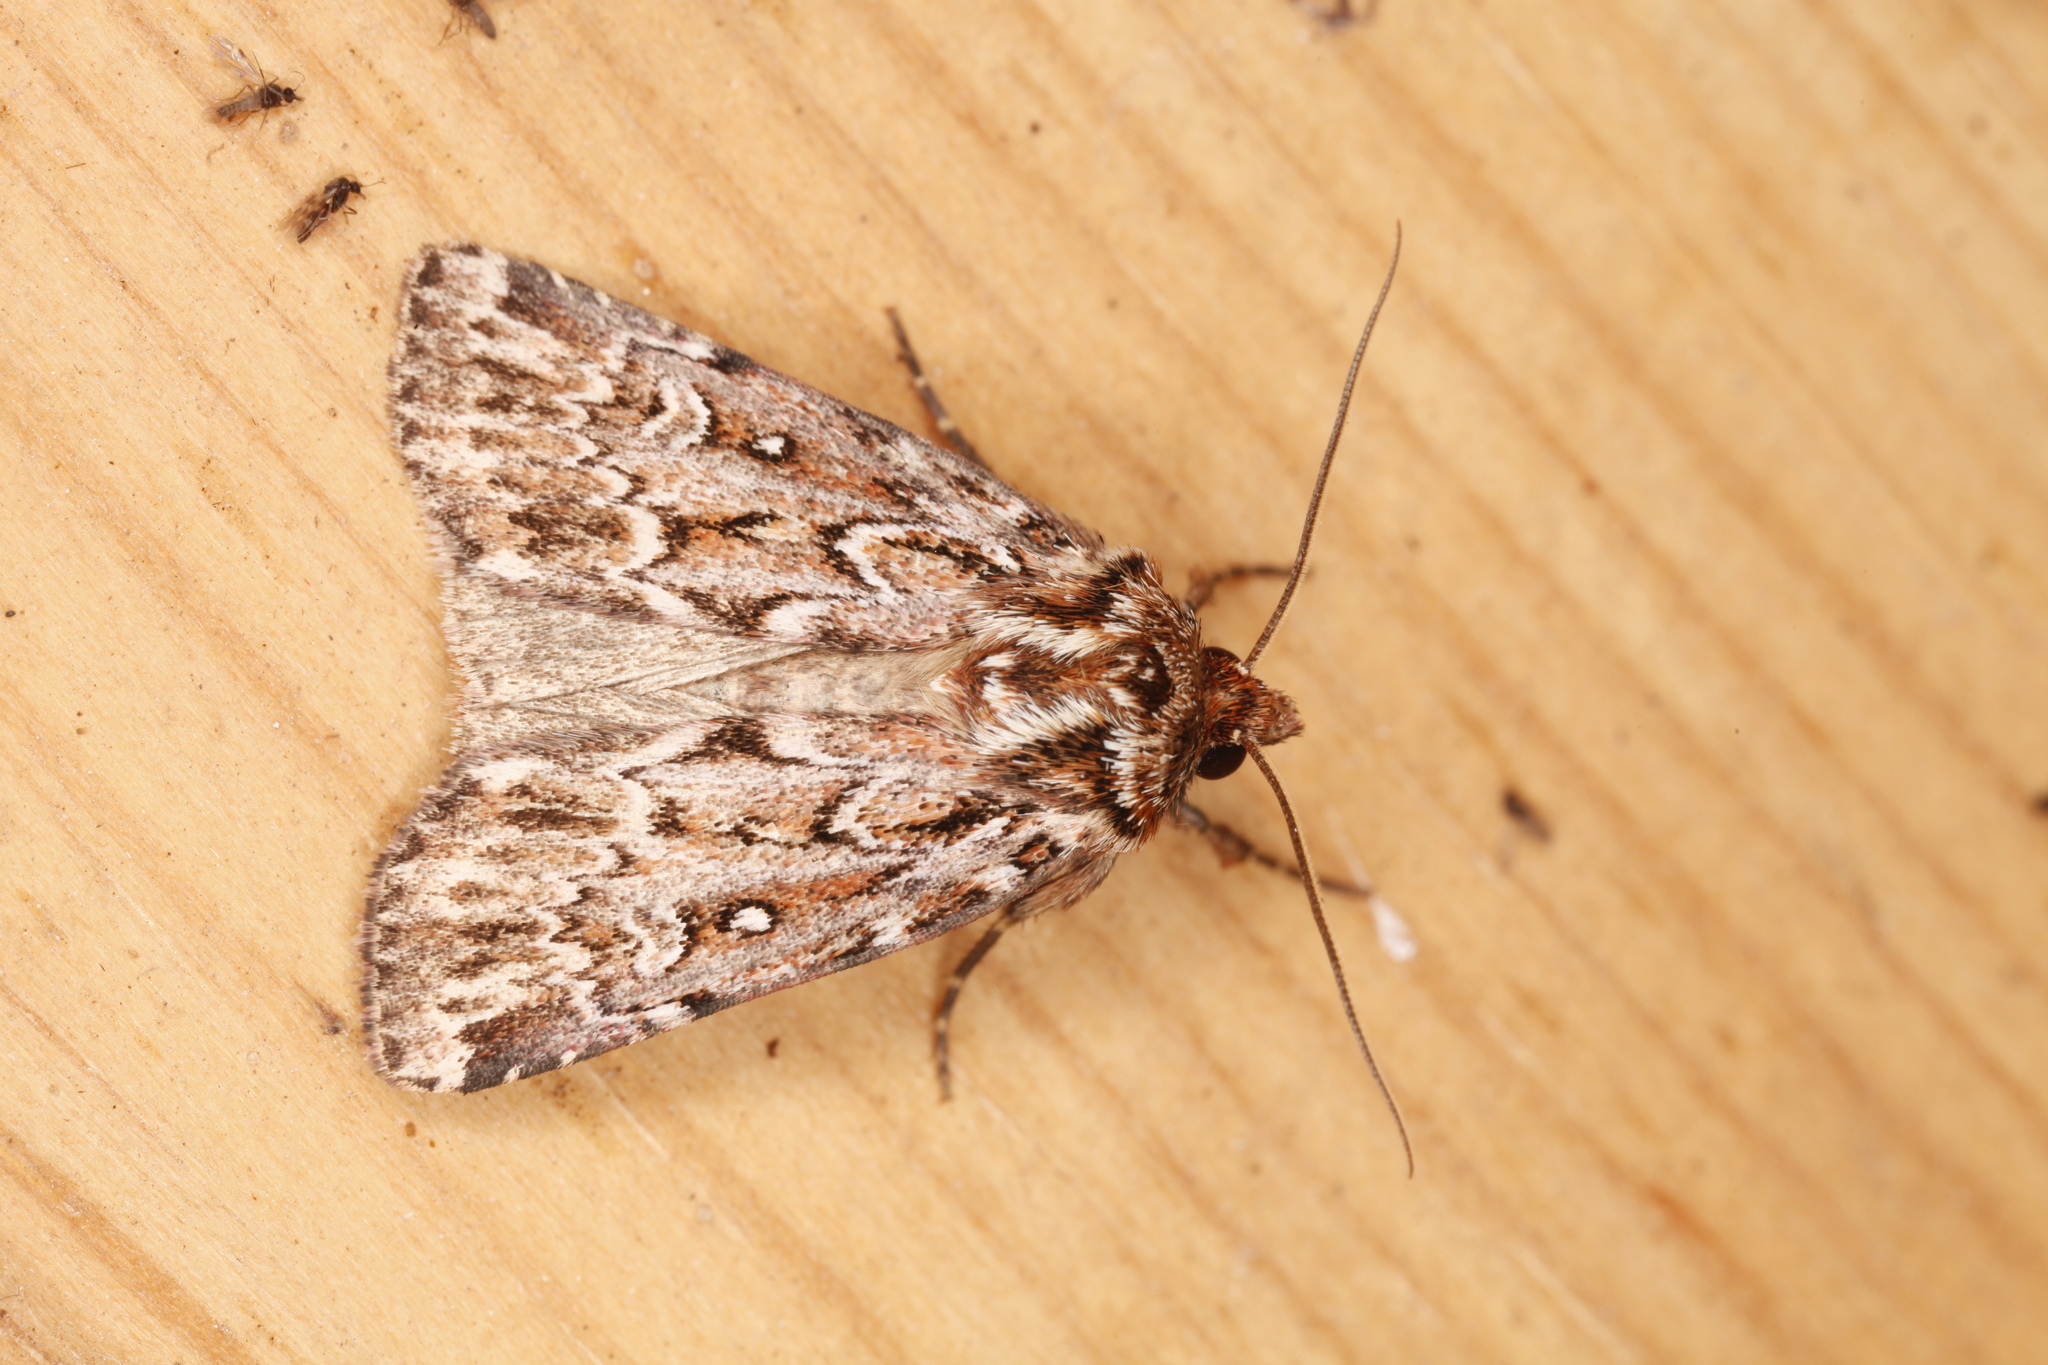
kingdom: Animalia
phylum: Arthropoda
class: Insecta
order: Lepidoptera
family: Noctuidae
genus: Lycophotia
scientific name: Lycophotia porphyrea
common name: True lover's knot
